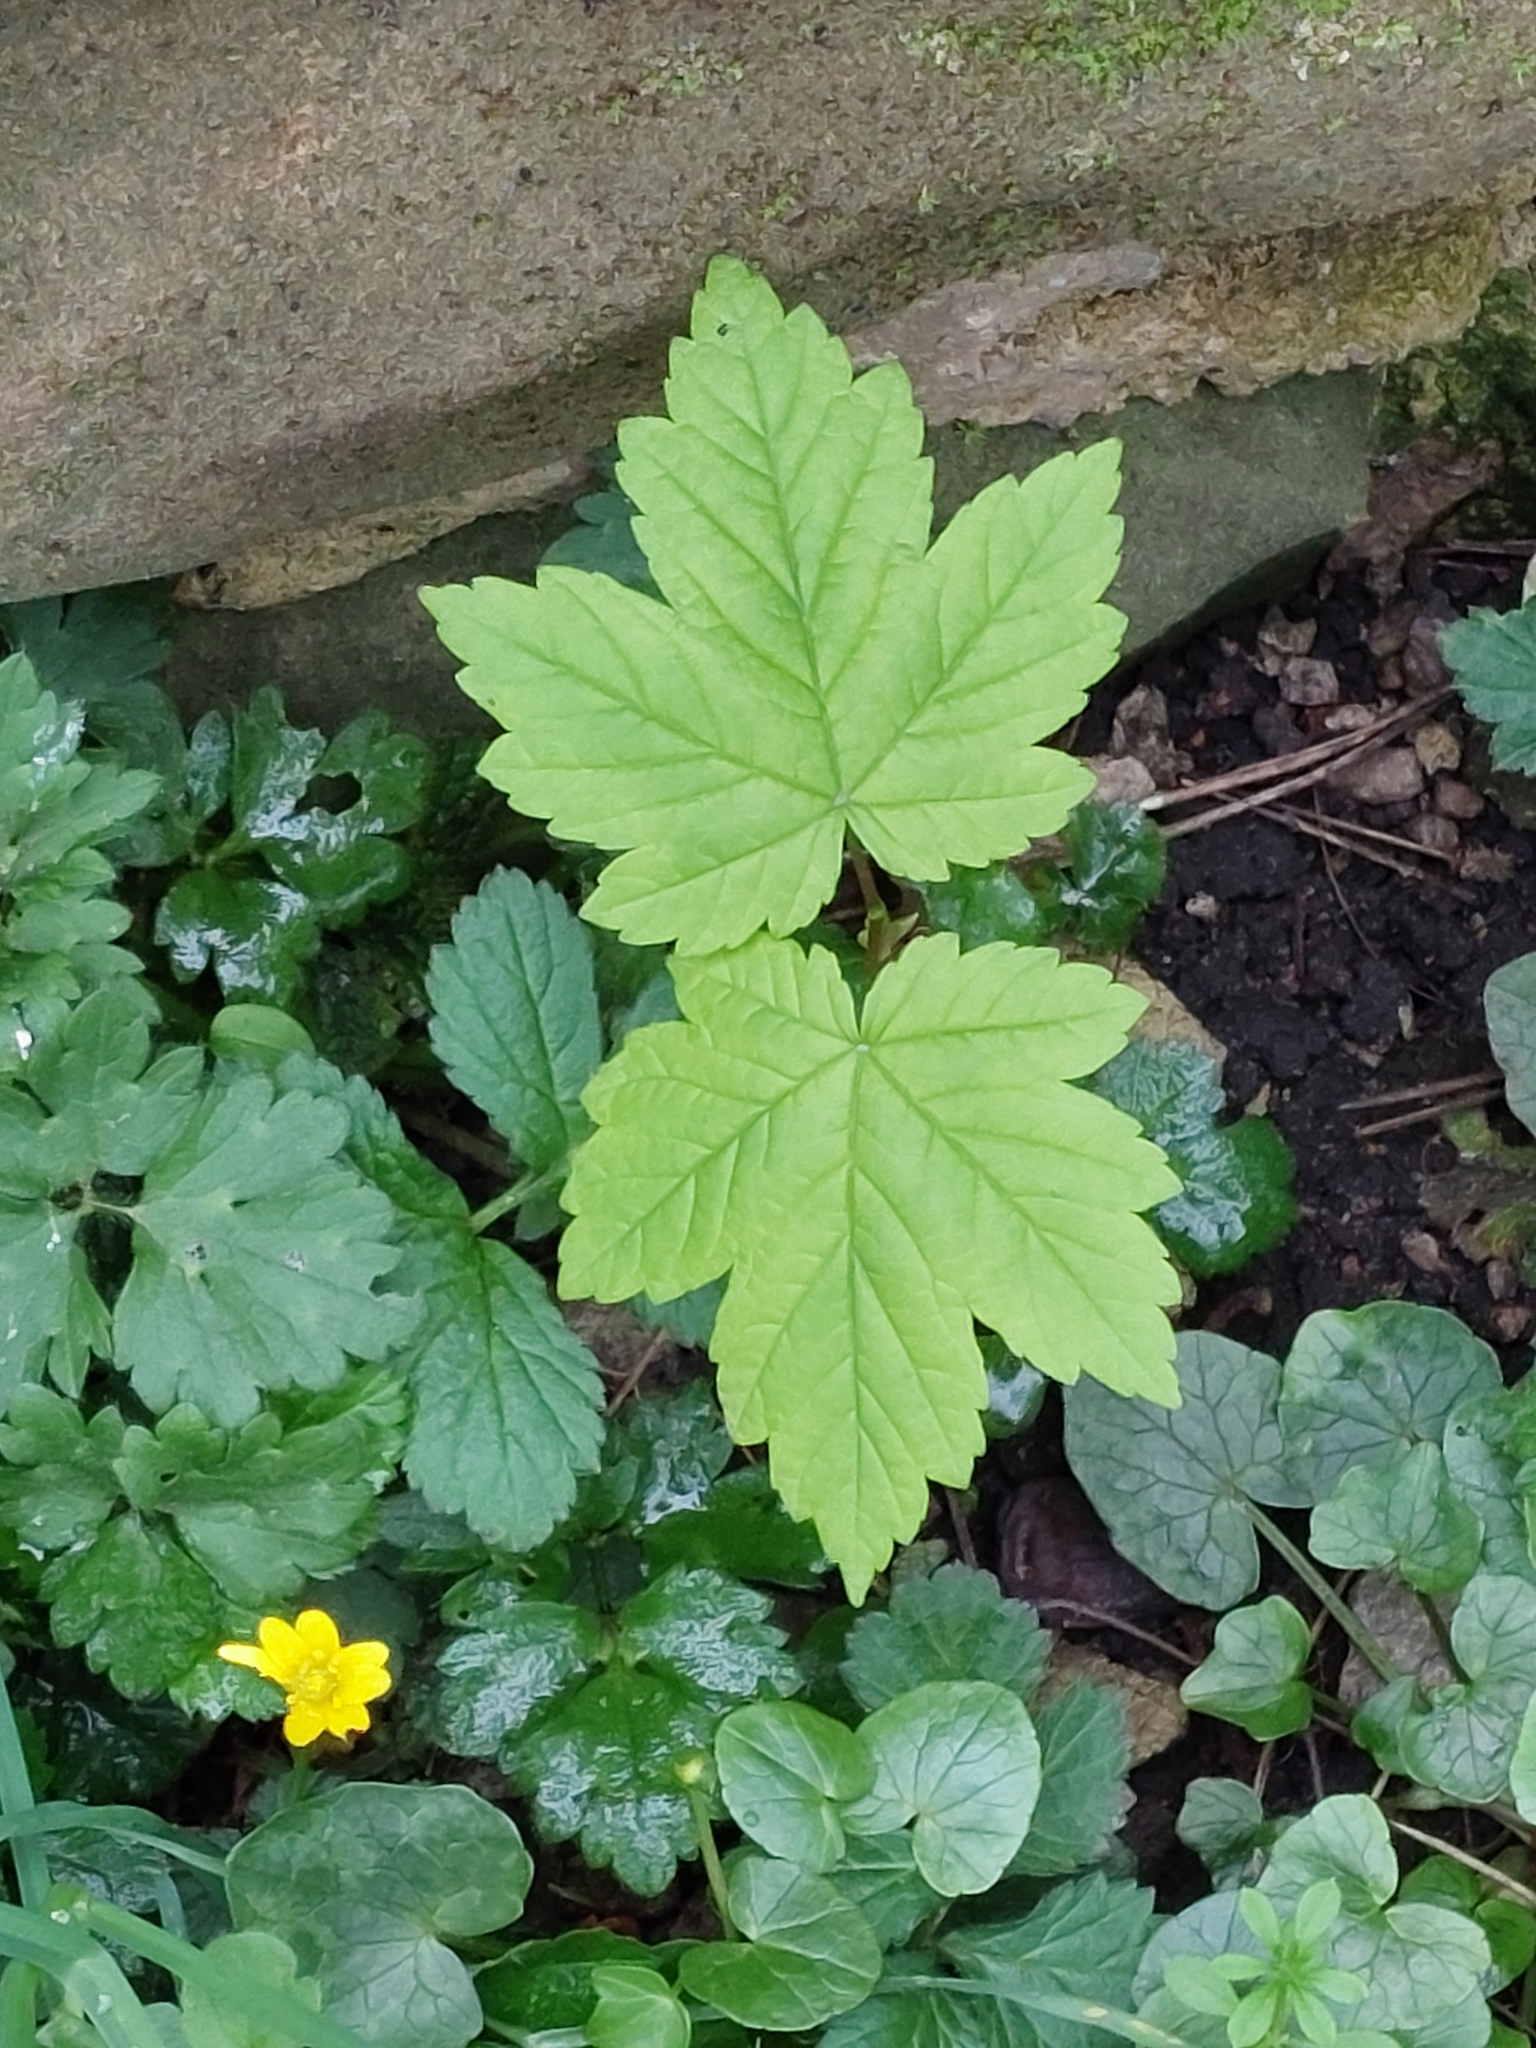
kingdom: Plantae
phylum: Tracheophyta
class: Magnoliopsida
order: Sapindales
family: Sapindaceae
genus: Acer
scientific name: Acer pseudoplatanus
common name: Sycamore
